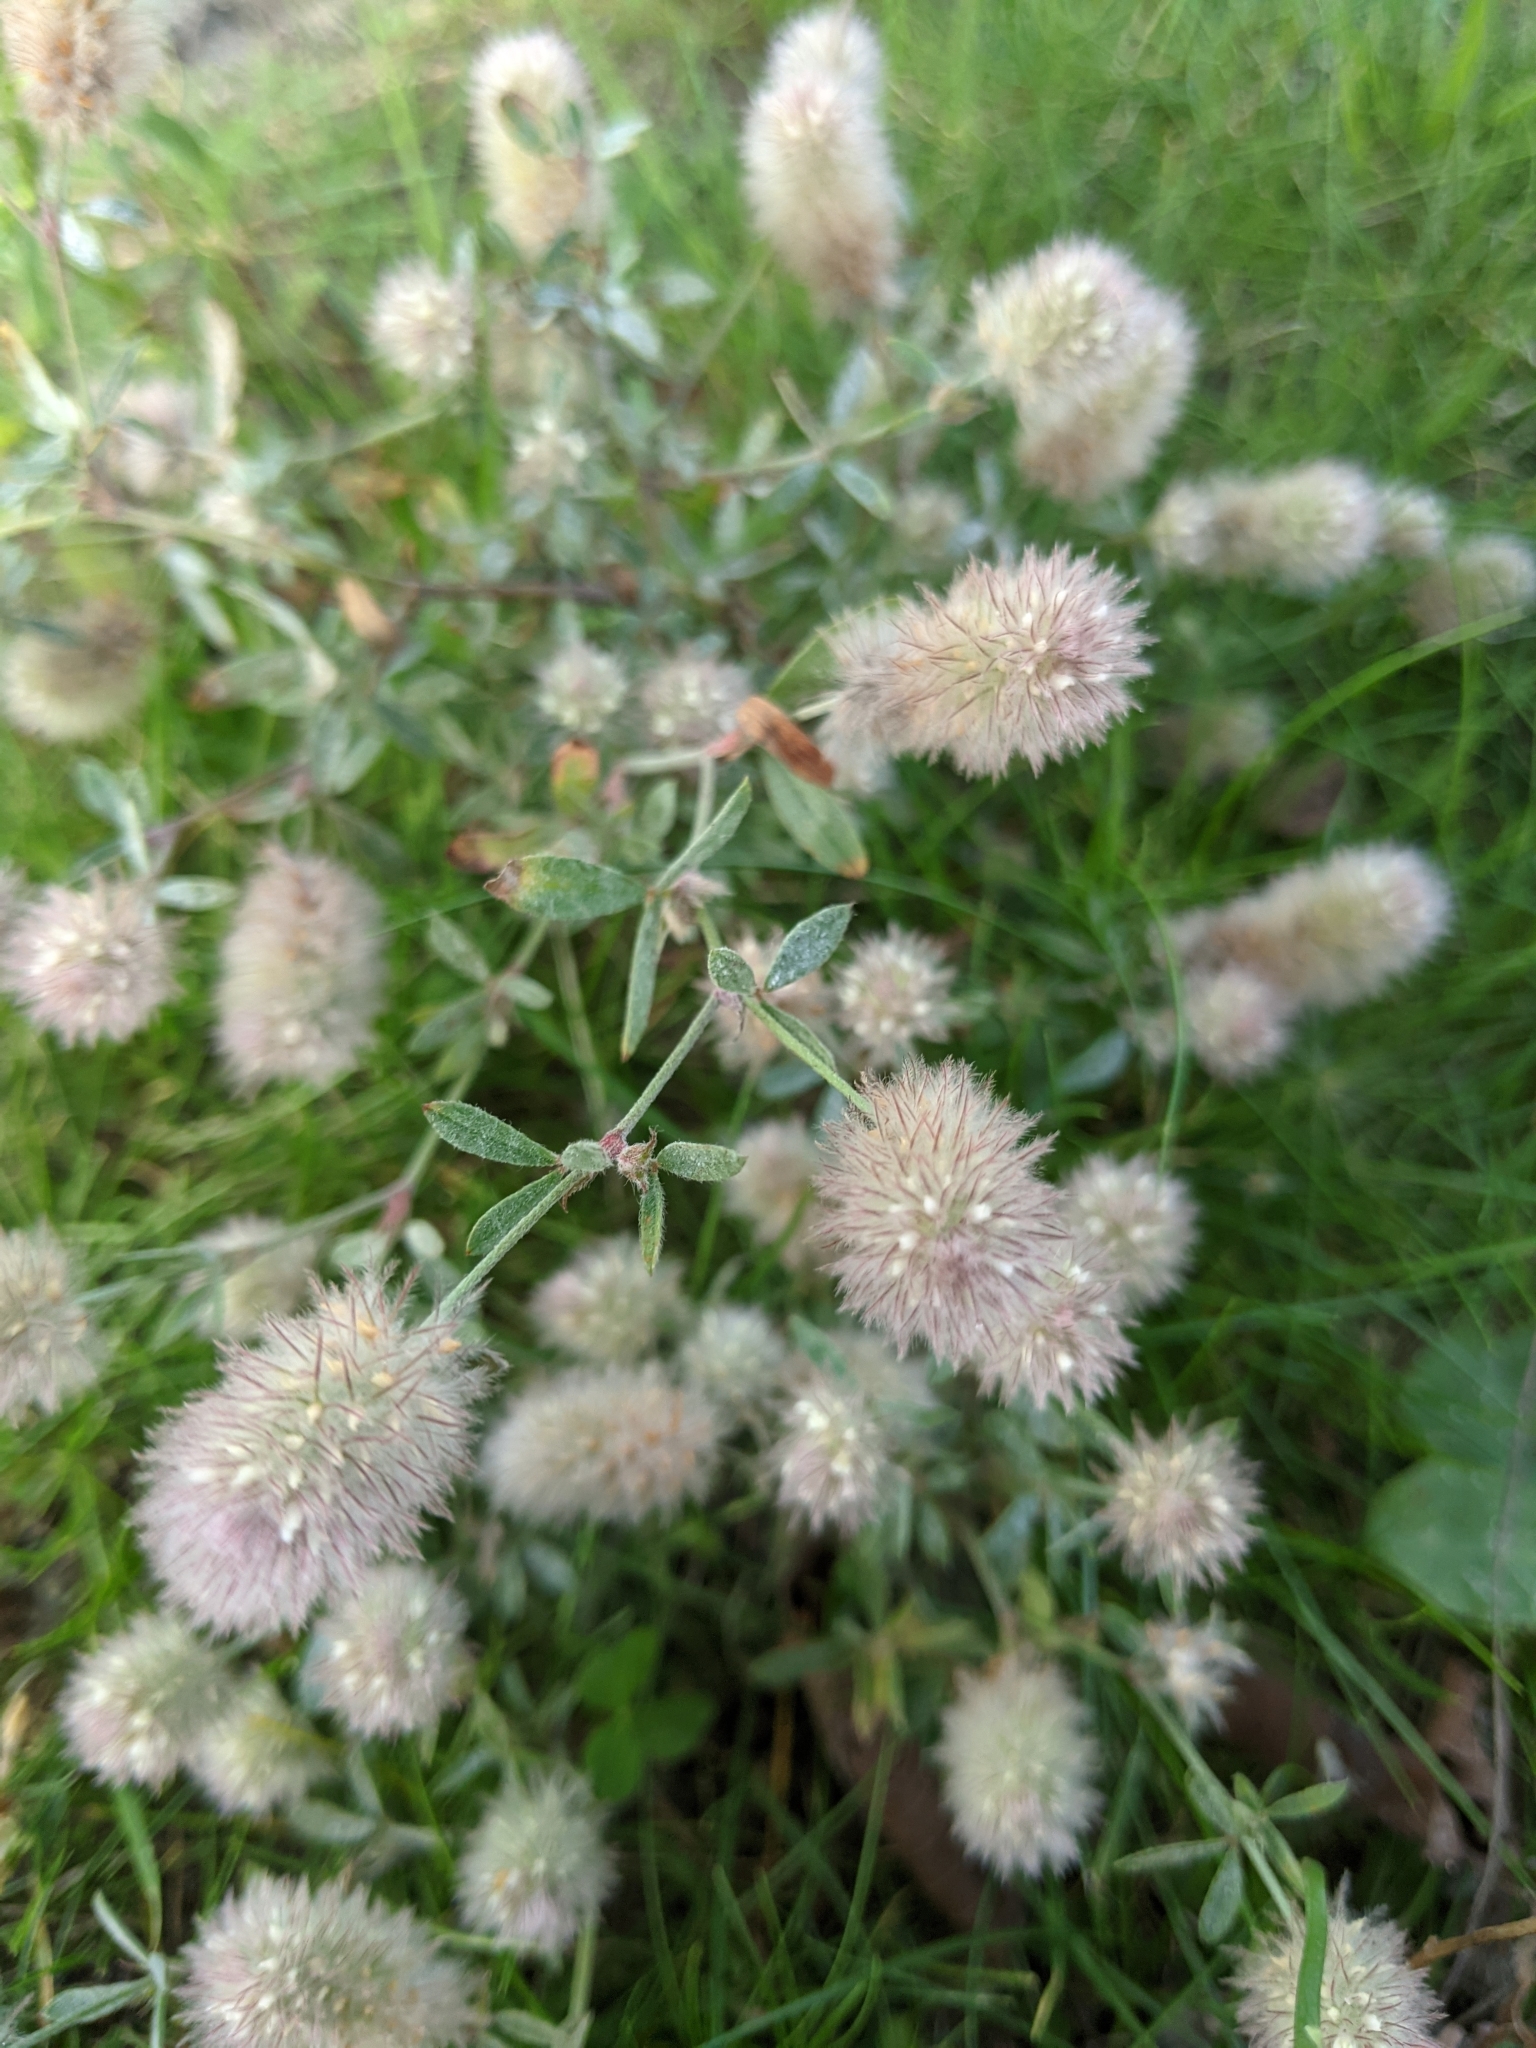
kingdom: Plantae
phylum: Tracheophyta
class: Magnoliopsida
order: Fabales
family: Fabaceae
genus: Trifolium
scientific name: Trifolium arvense
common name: Hare's-foot clover
